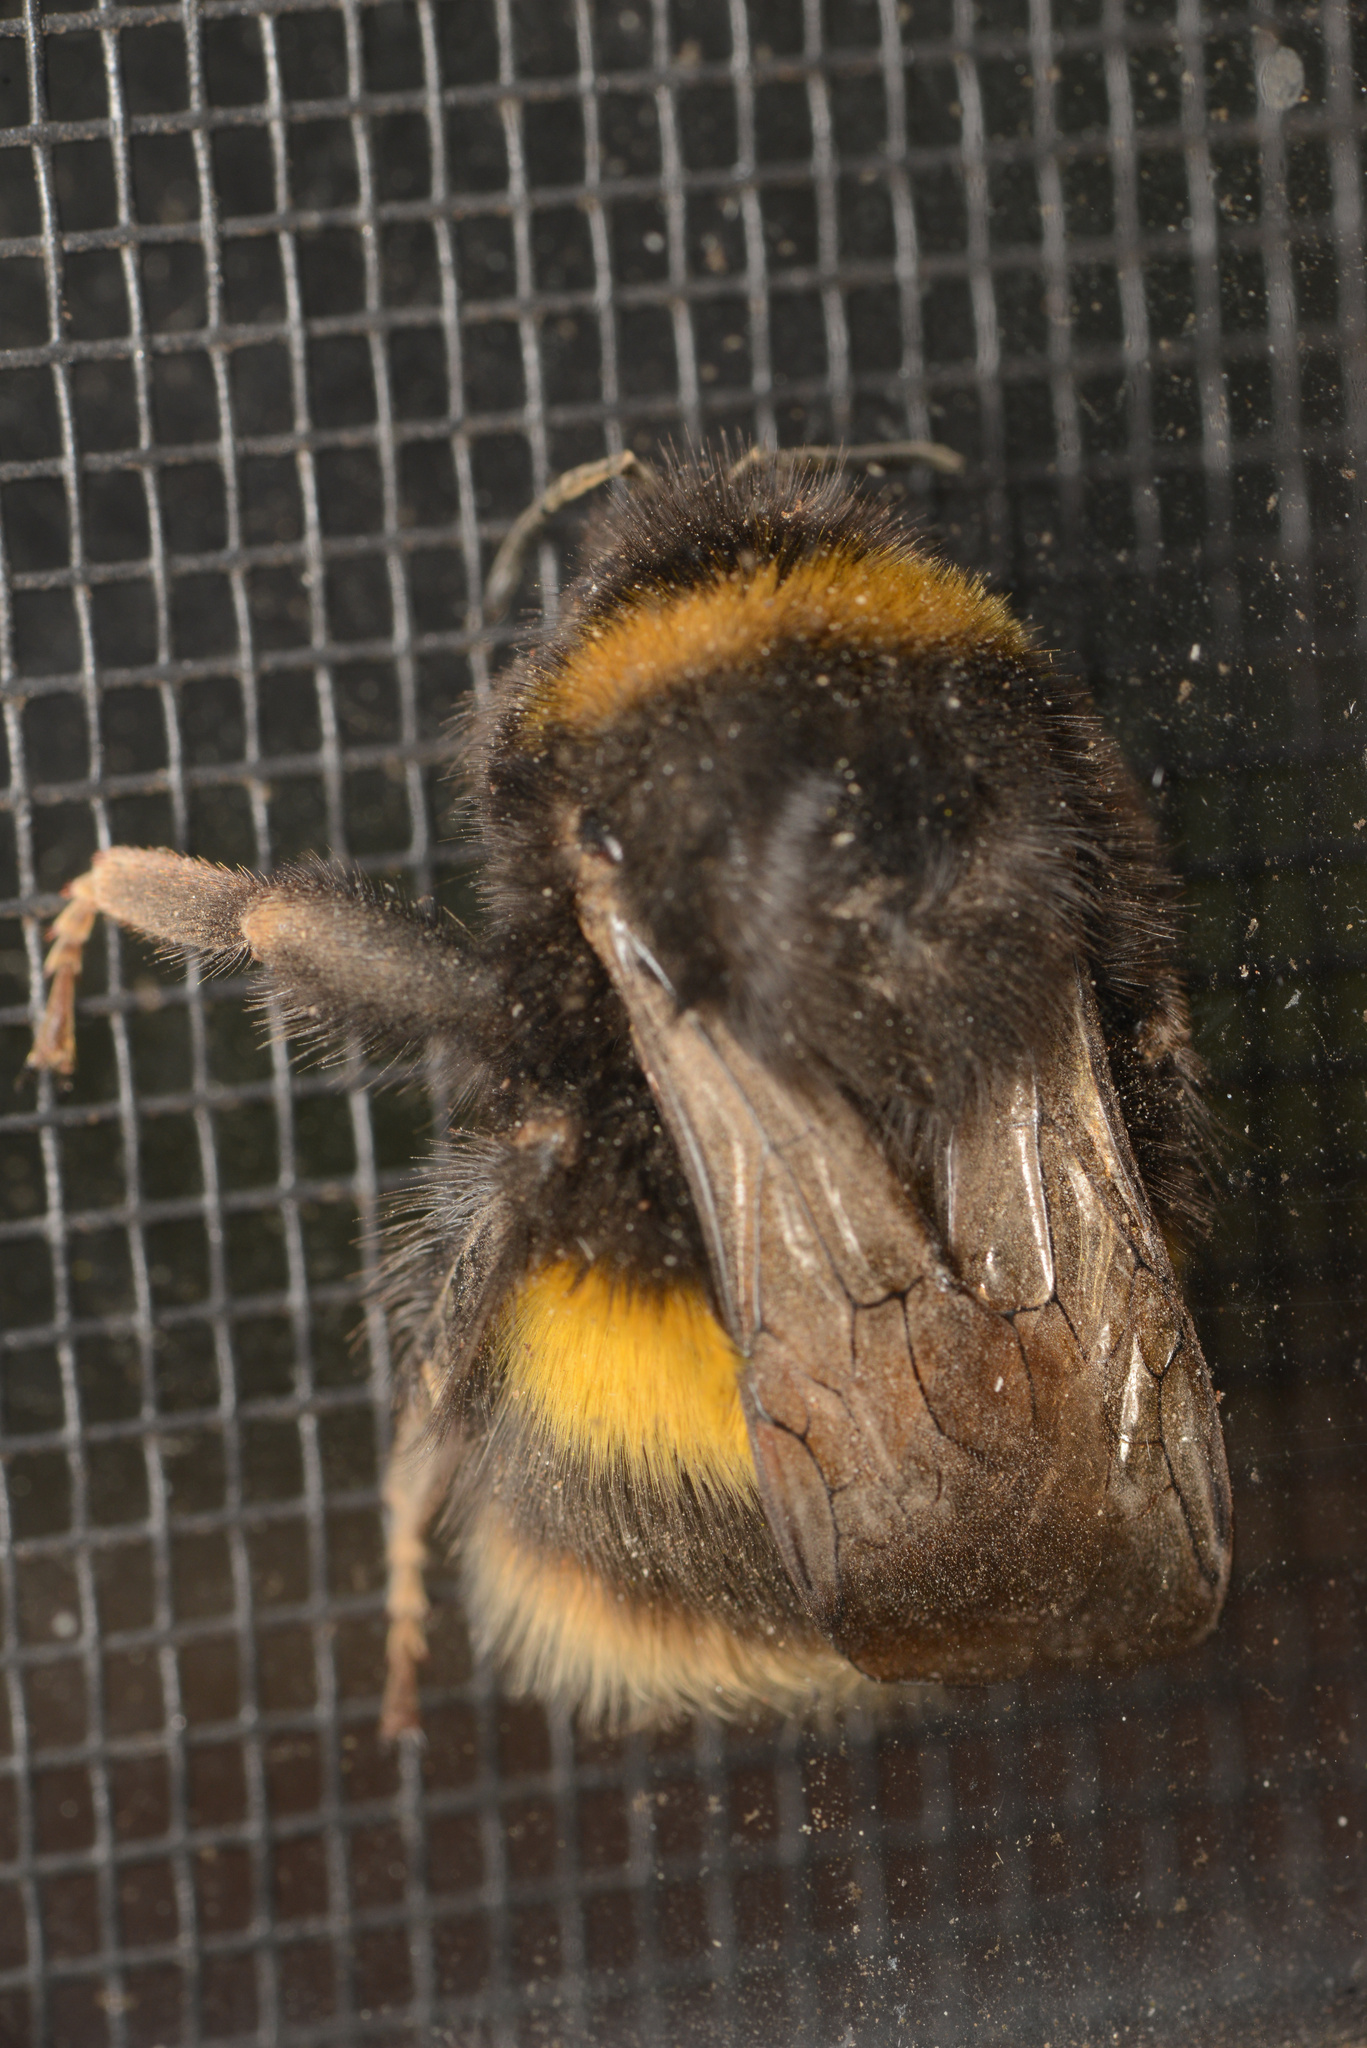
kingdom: Animalia
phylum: Arthropoda
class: Insecta
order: Hymenoptera
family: Apidae
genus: Bombus
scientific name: Bombus terrestris
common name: Buff-tailed bumblebee
